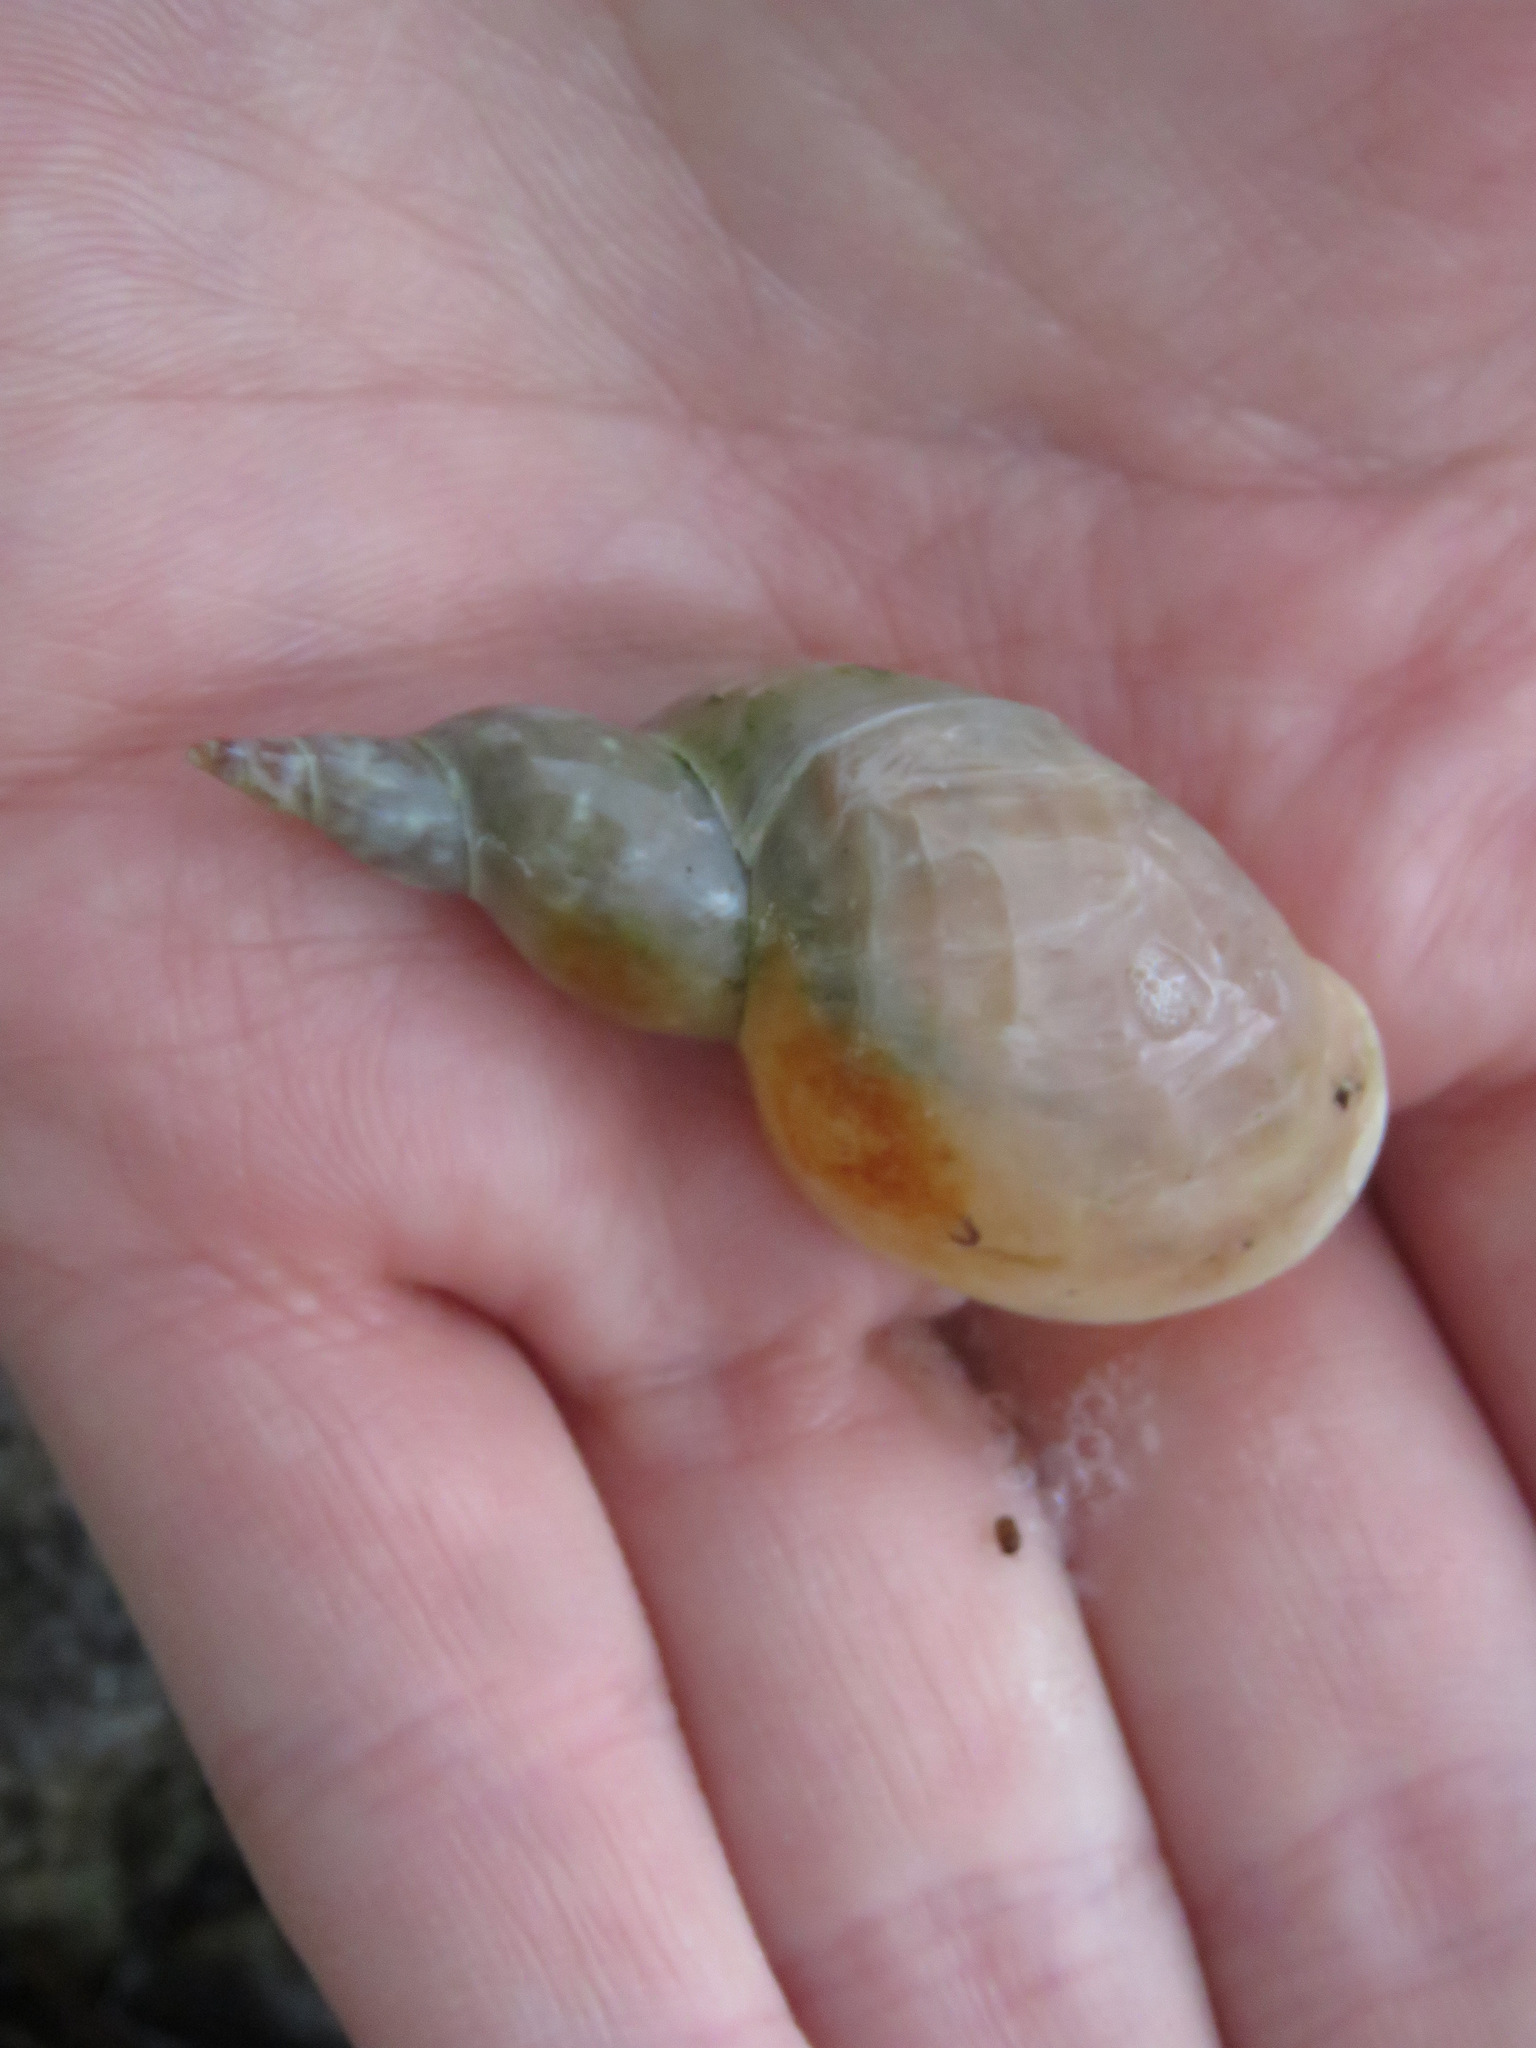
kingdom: Animalia
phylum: Mollusca
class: Gastropoda
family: Lymnaeidae
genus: Lymnaea
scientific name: Lymnaea stagnalis
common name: Great pond snail
